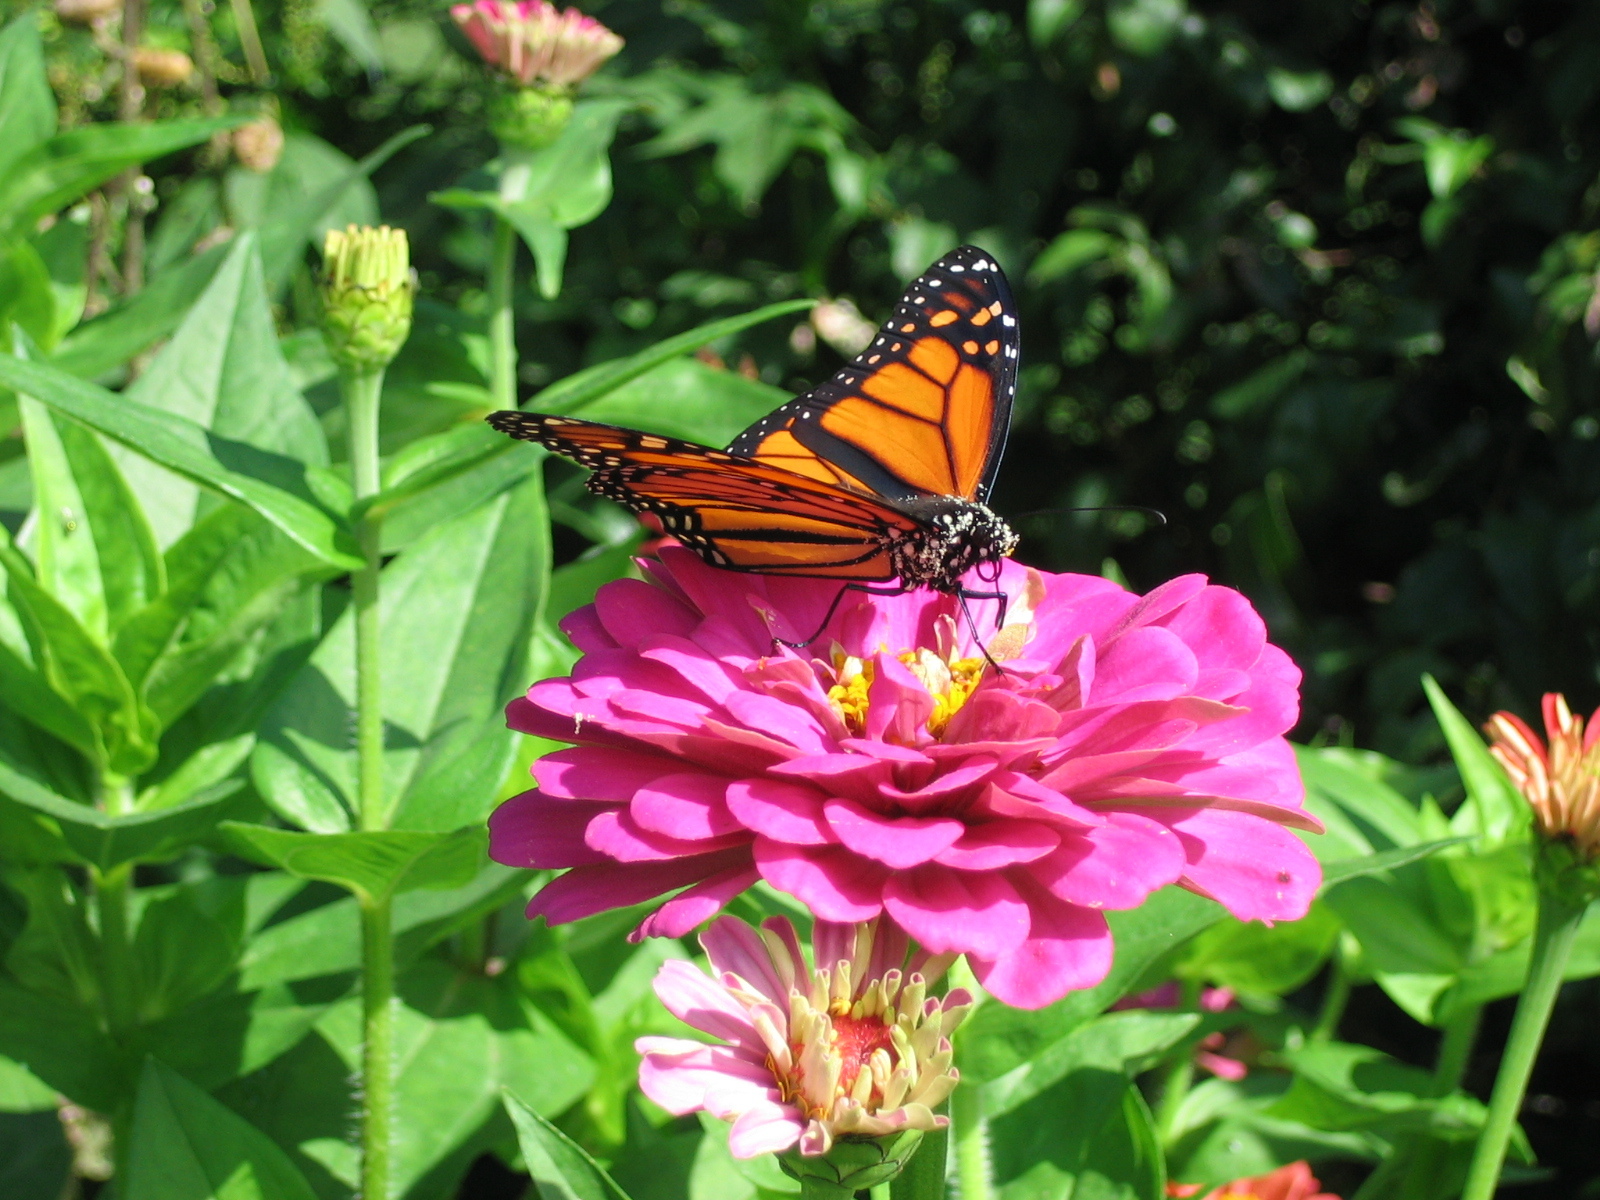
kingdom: Animalia
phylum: Arthropoda
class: Insecta
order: Lepidoptera
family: Nymphalidae
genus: Danaus
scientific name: Danaus plexippus
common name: Monarch
